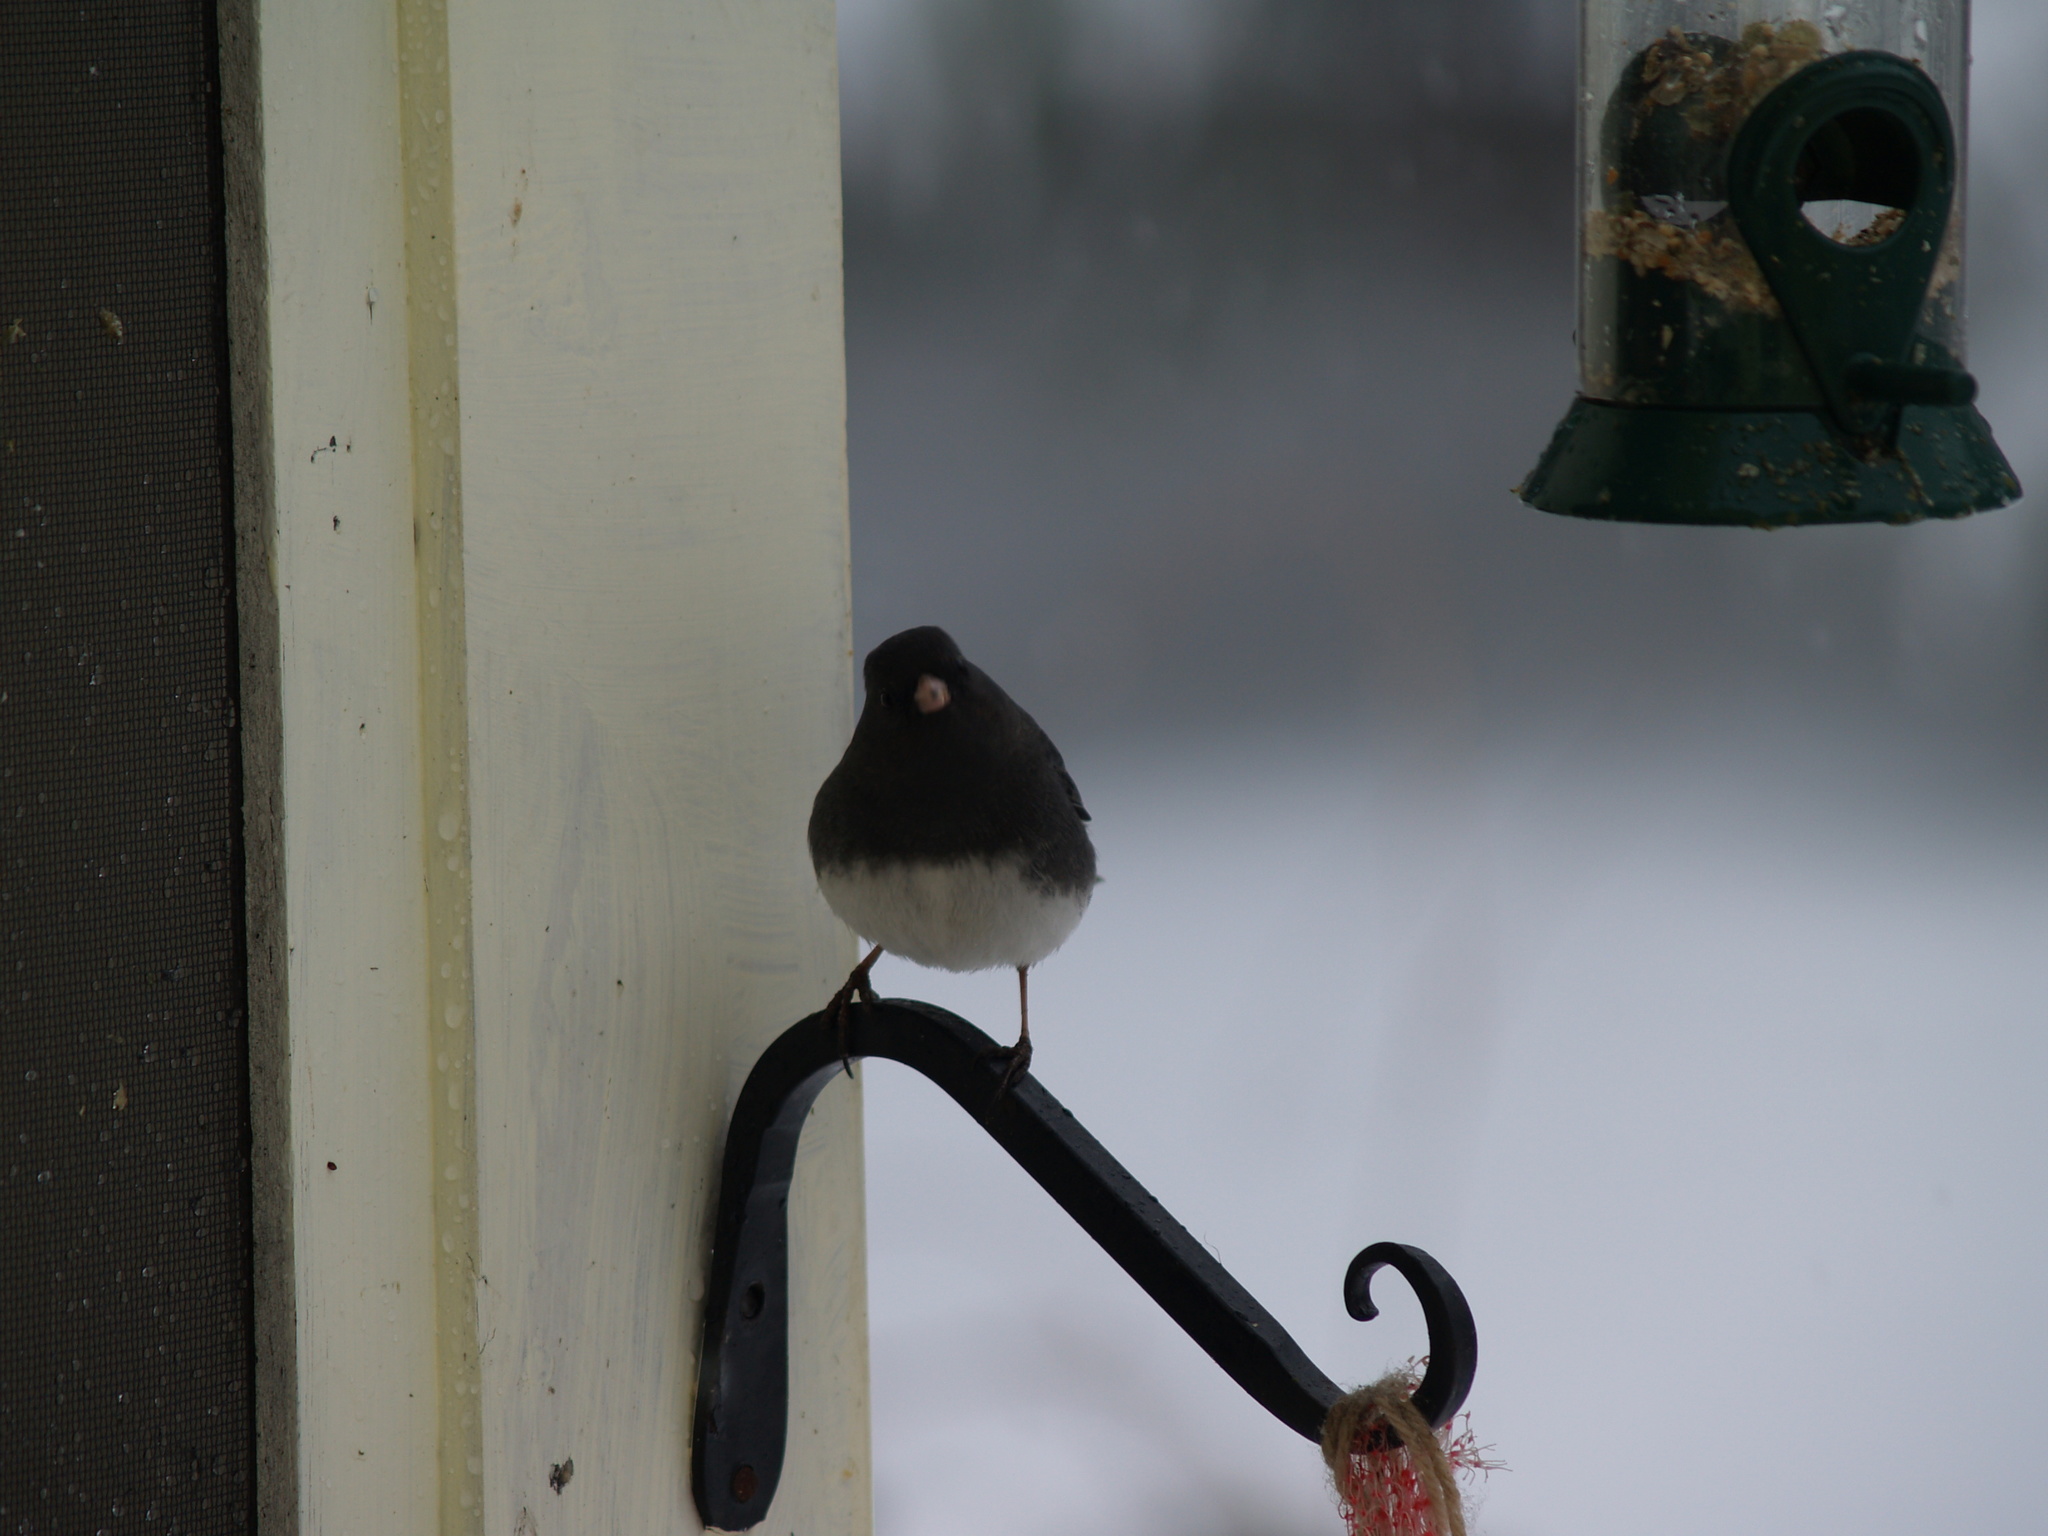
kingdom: Animalia
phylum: Chordata
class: Aves
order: Passeriformes
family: Passerellidae
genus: Junco
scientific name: Junco hyemalis
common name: Dark-eyed junco
